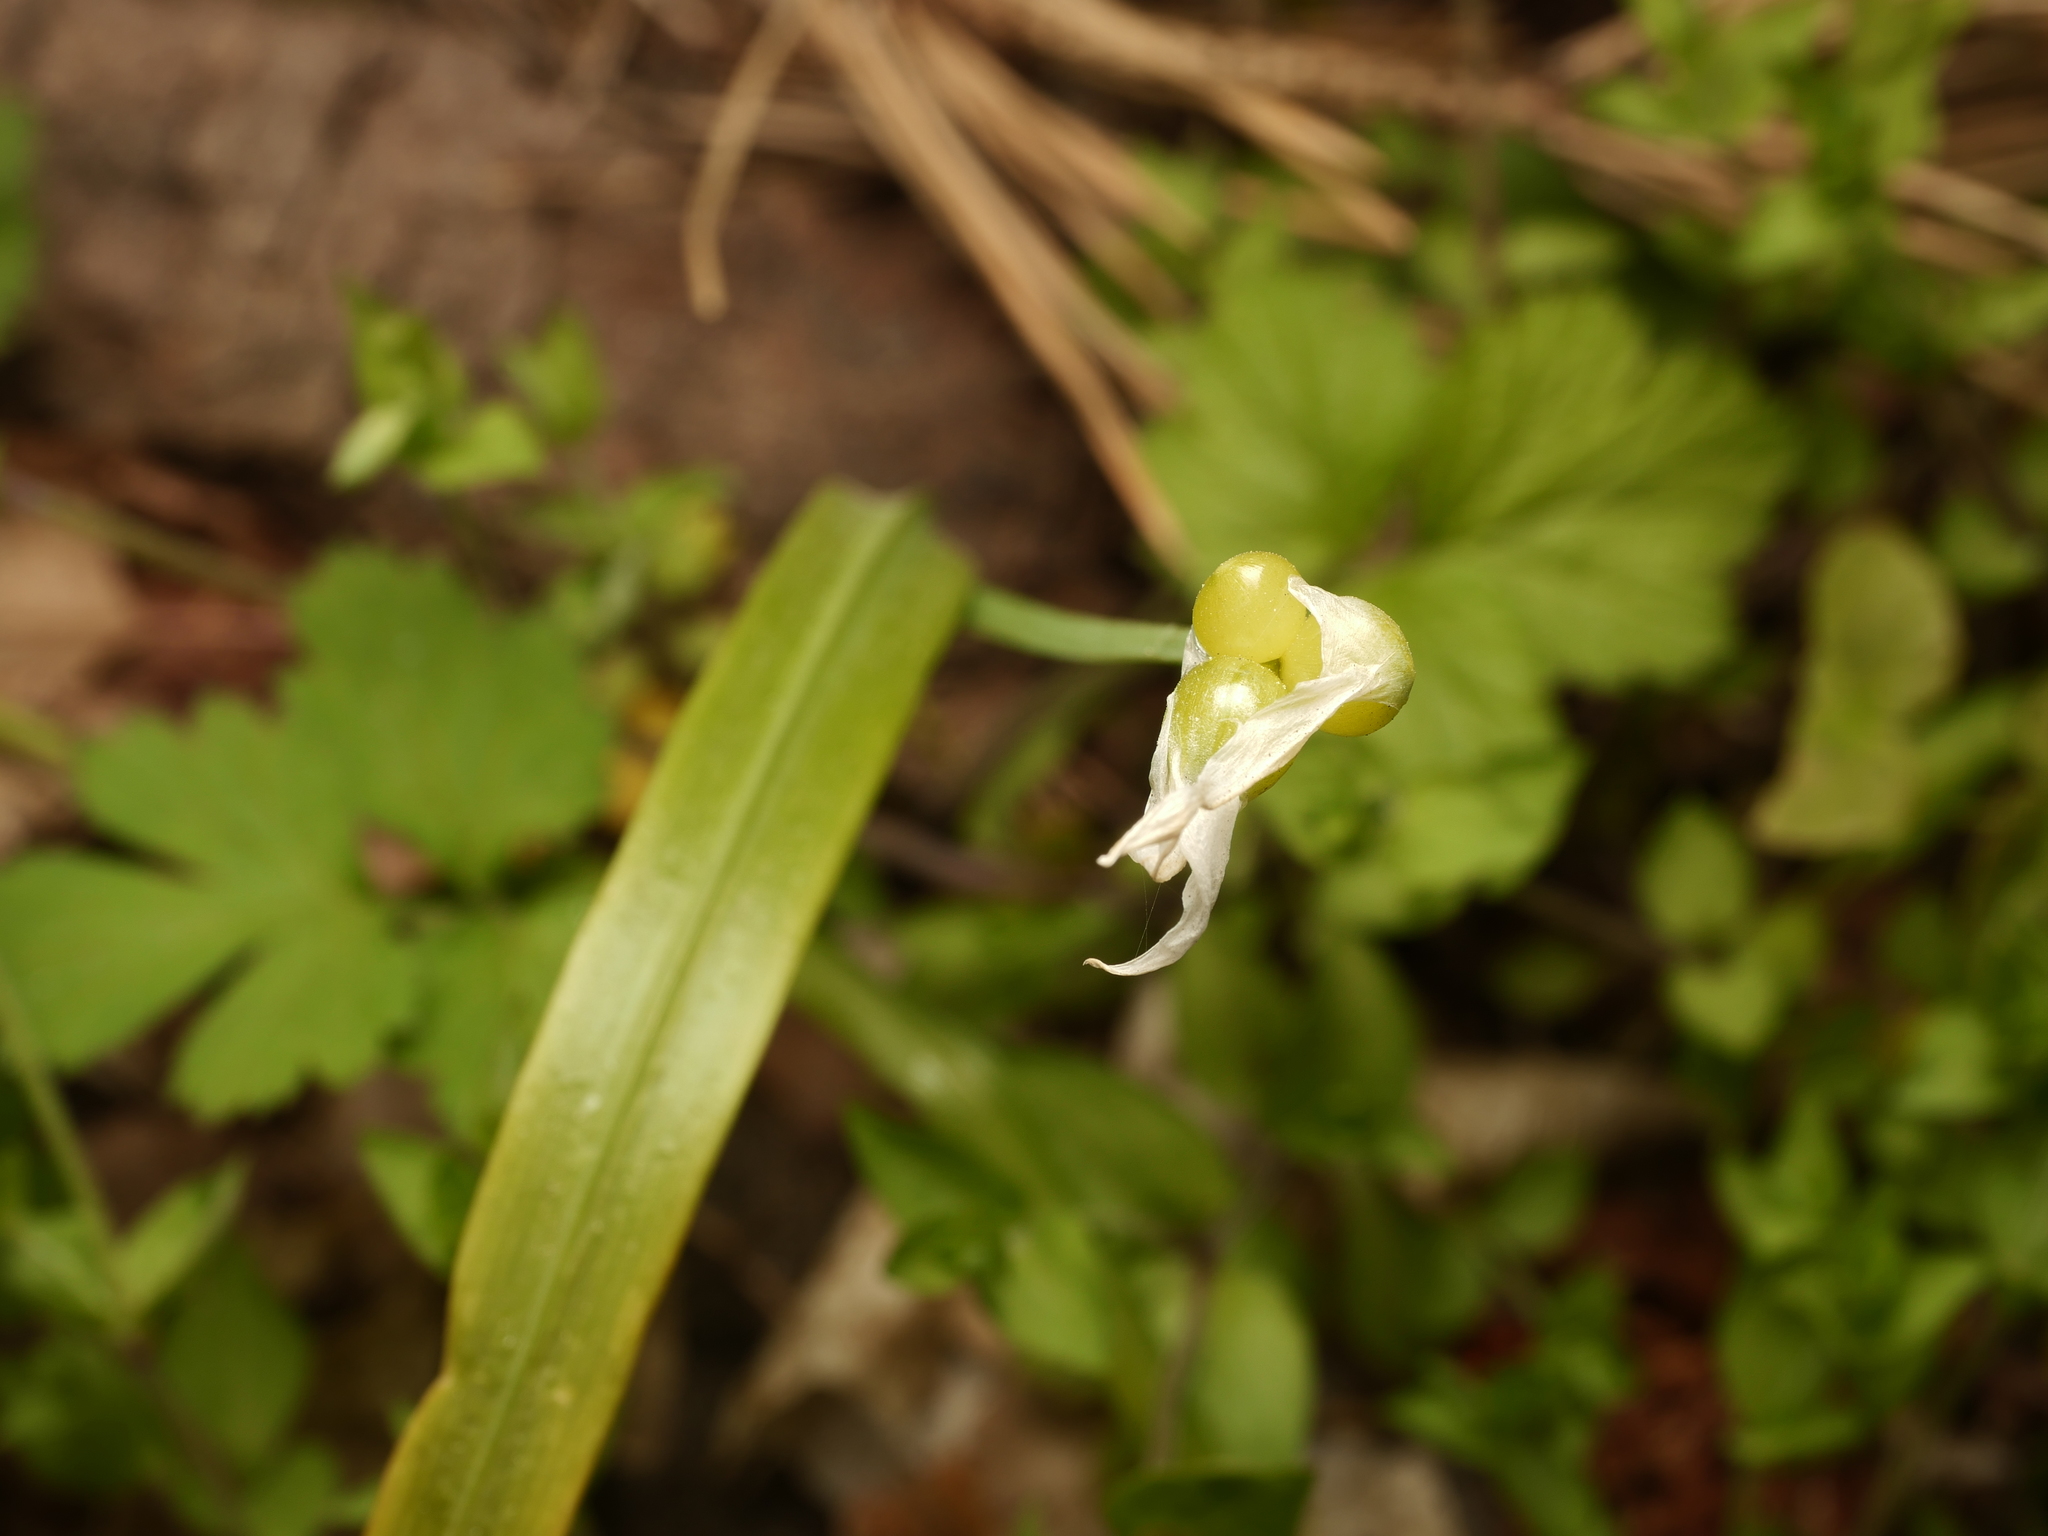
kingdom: Plantae
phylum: Tracheophyta
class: Liliopsida
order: Asparagales
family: Amaryllidaceae
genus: Allium
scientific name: Allium paradoxum
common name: Few-flowered garlic
